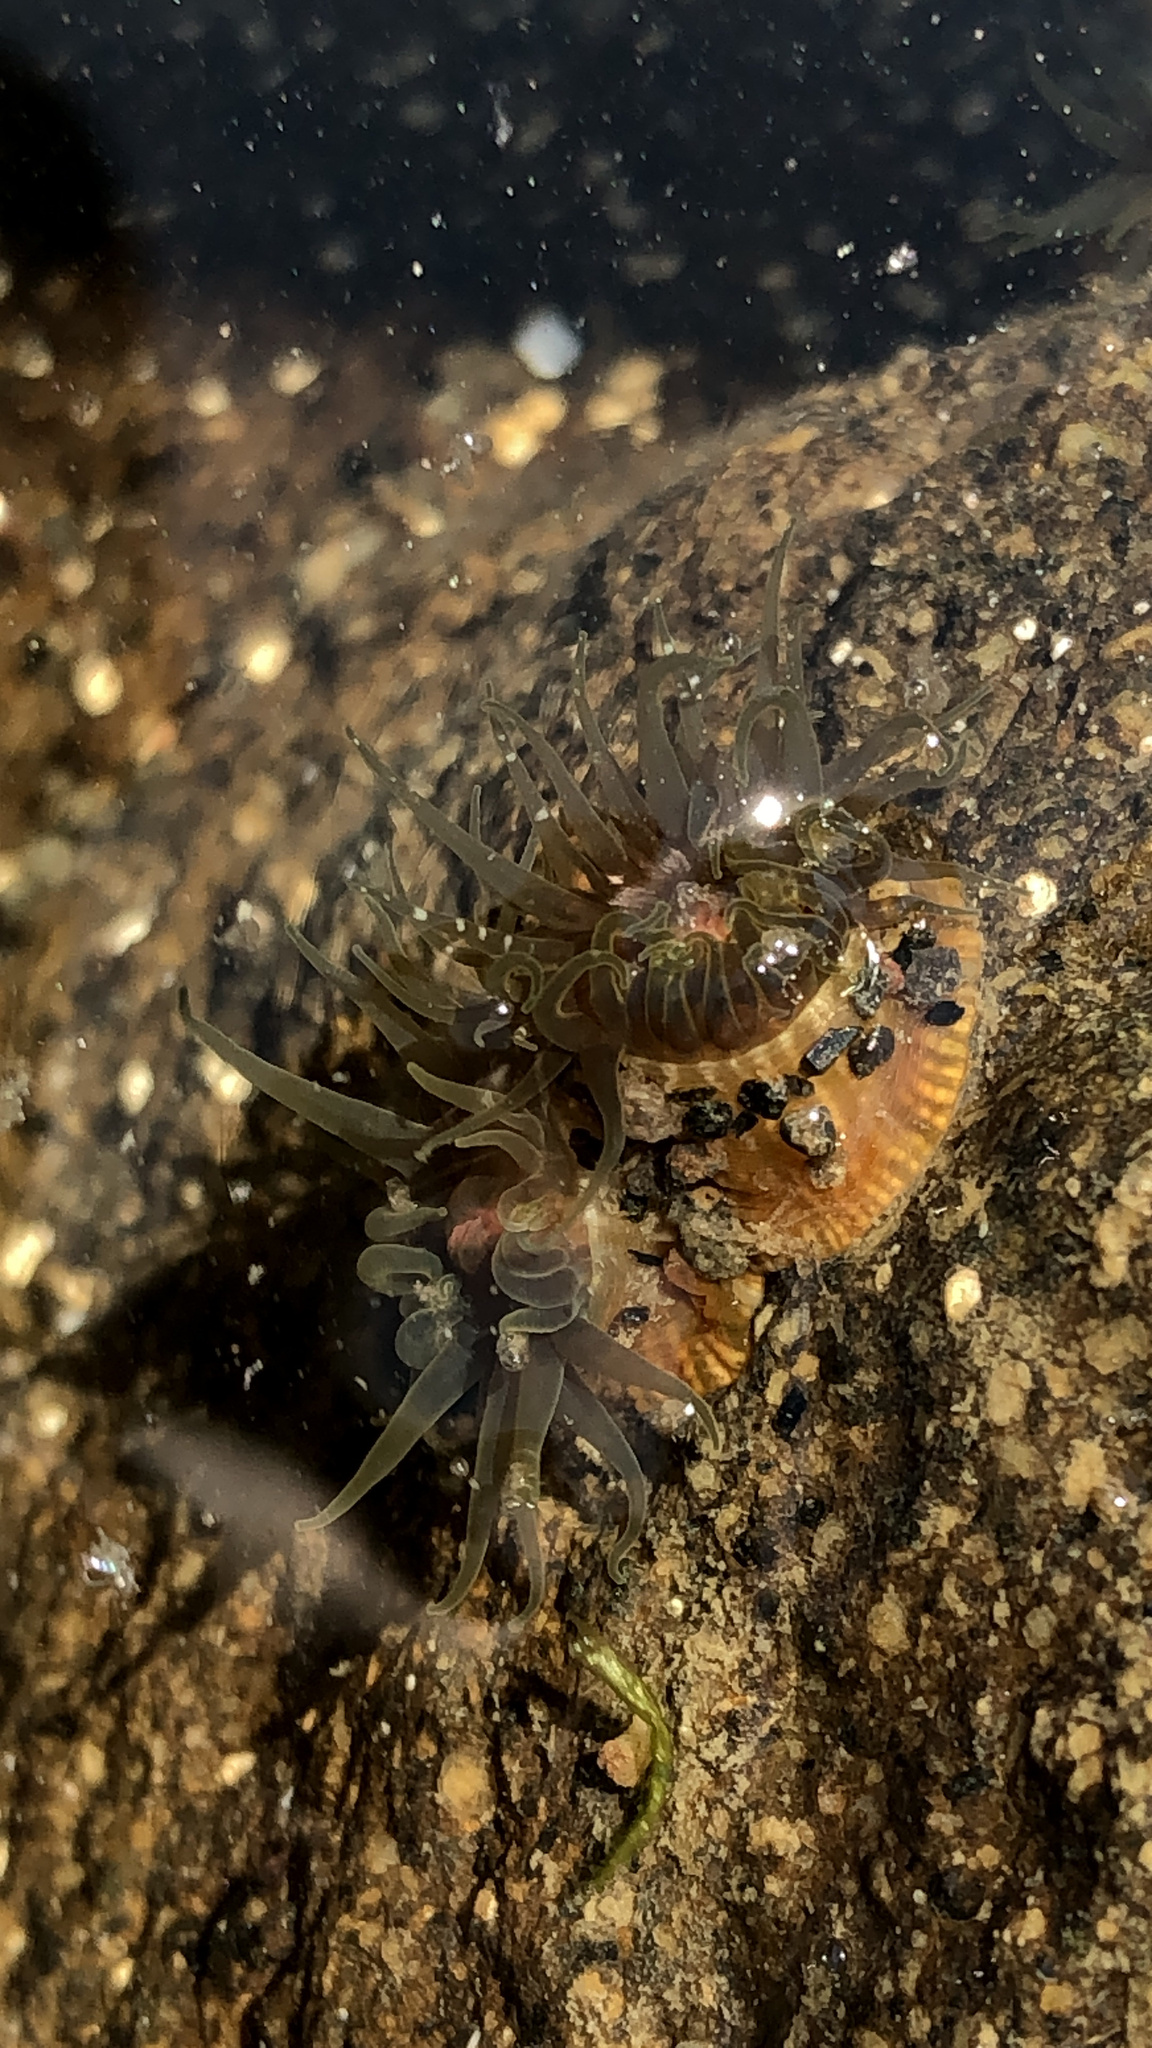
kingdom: Animalia
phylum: Cnidaria
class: Anthozoa
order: Actiniaria
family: Actiniidae
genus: Isactinia
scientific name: Isactinia olivacea
